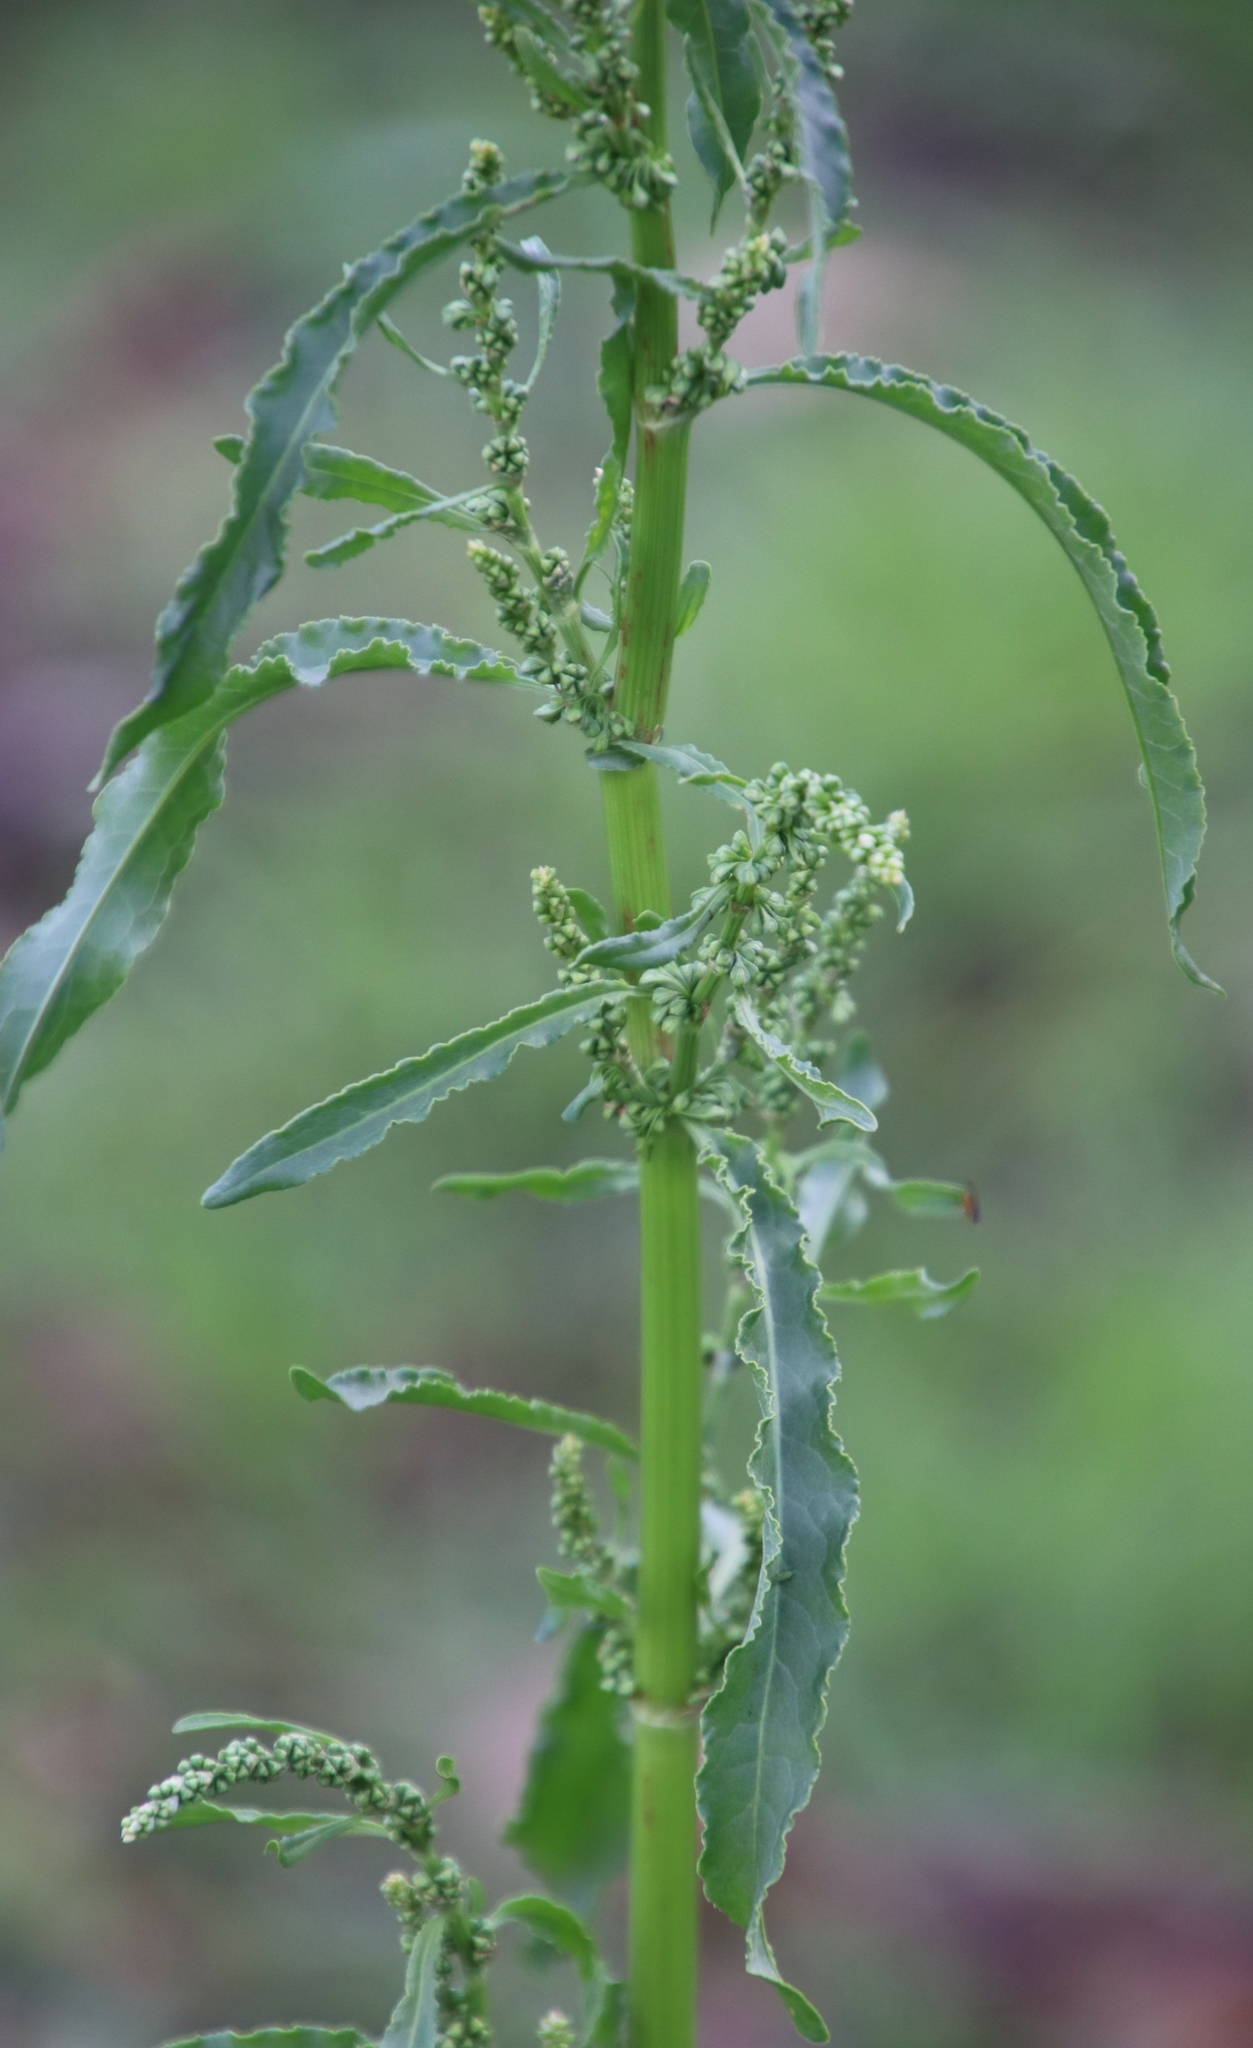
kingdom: Plantae
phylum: Tracheophyta
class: Magnoliopsida
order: Caryophyllales
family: Polygonaceae
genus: Rumex
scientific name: Rumex crispus
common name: Curled dock
